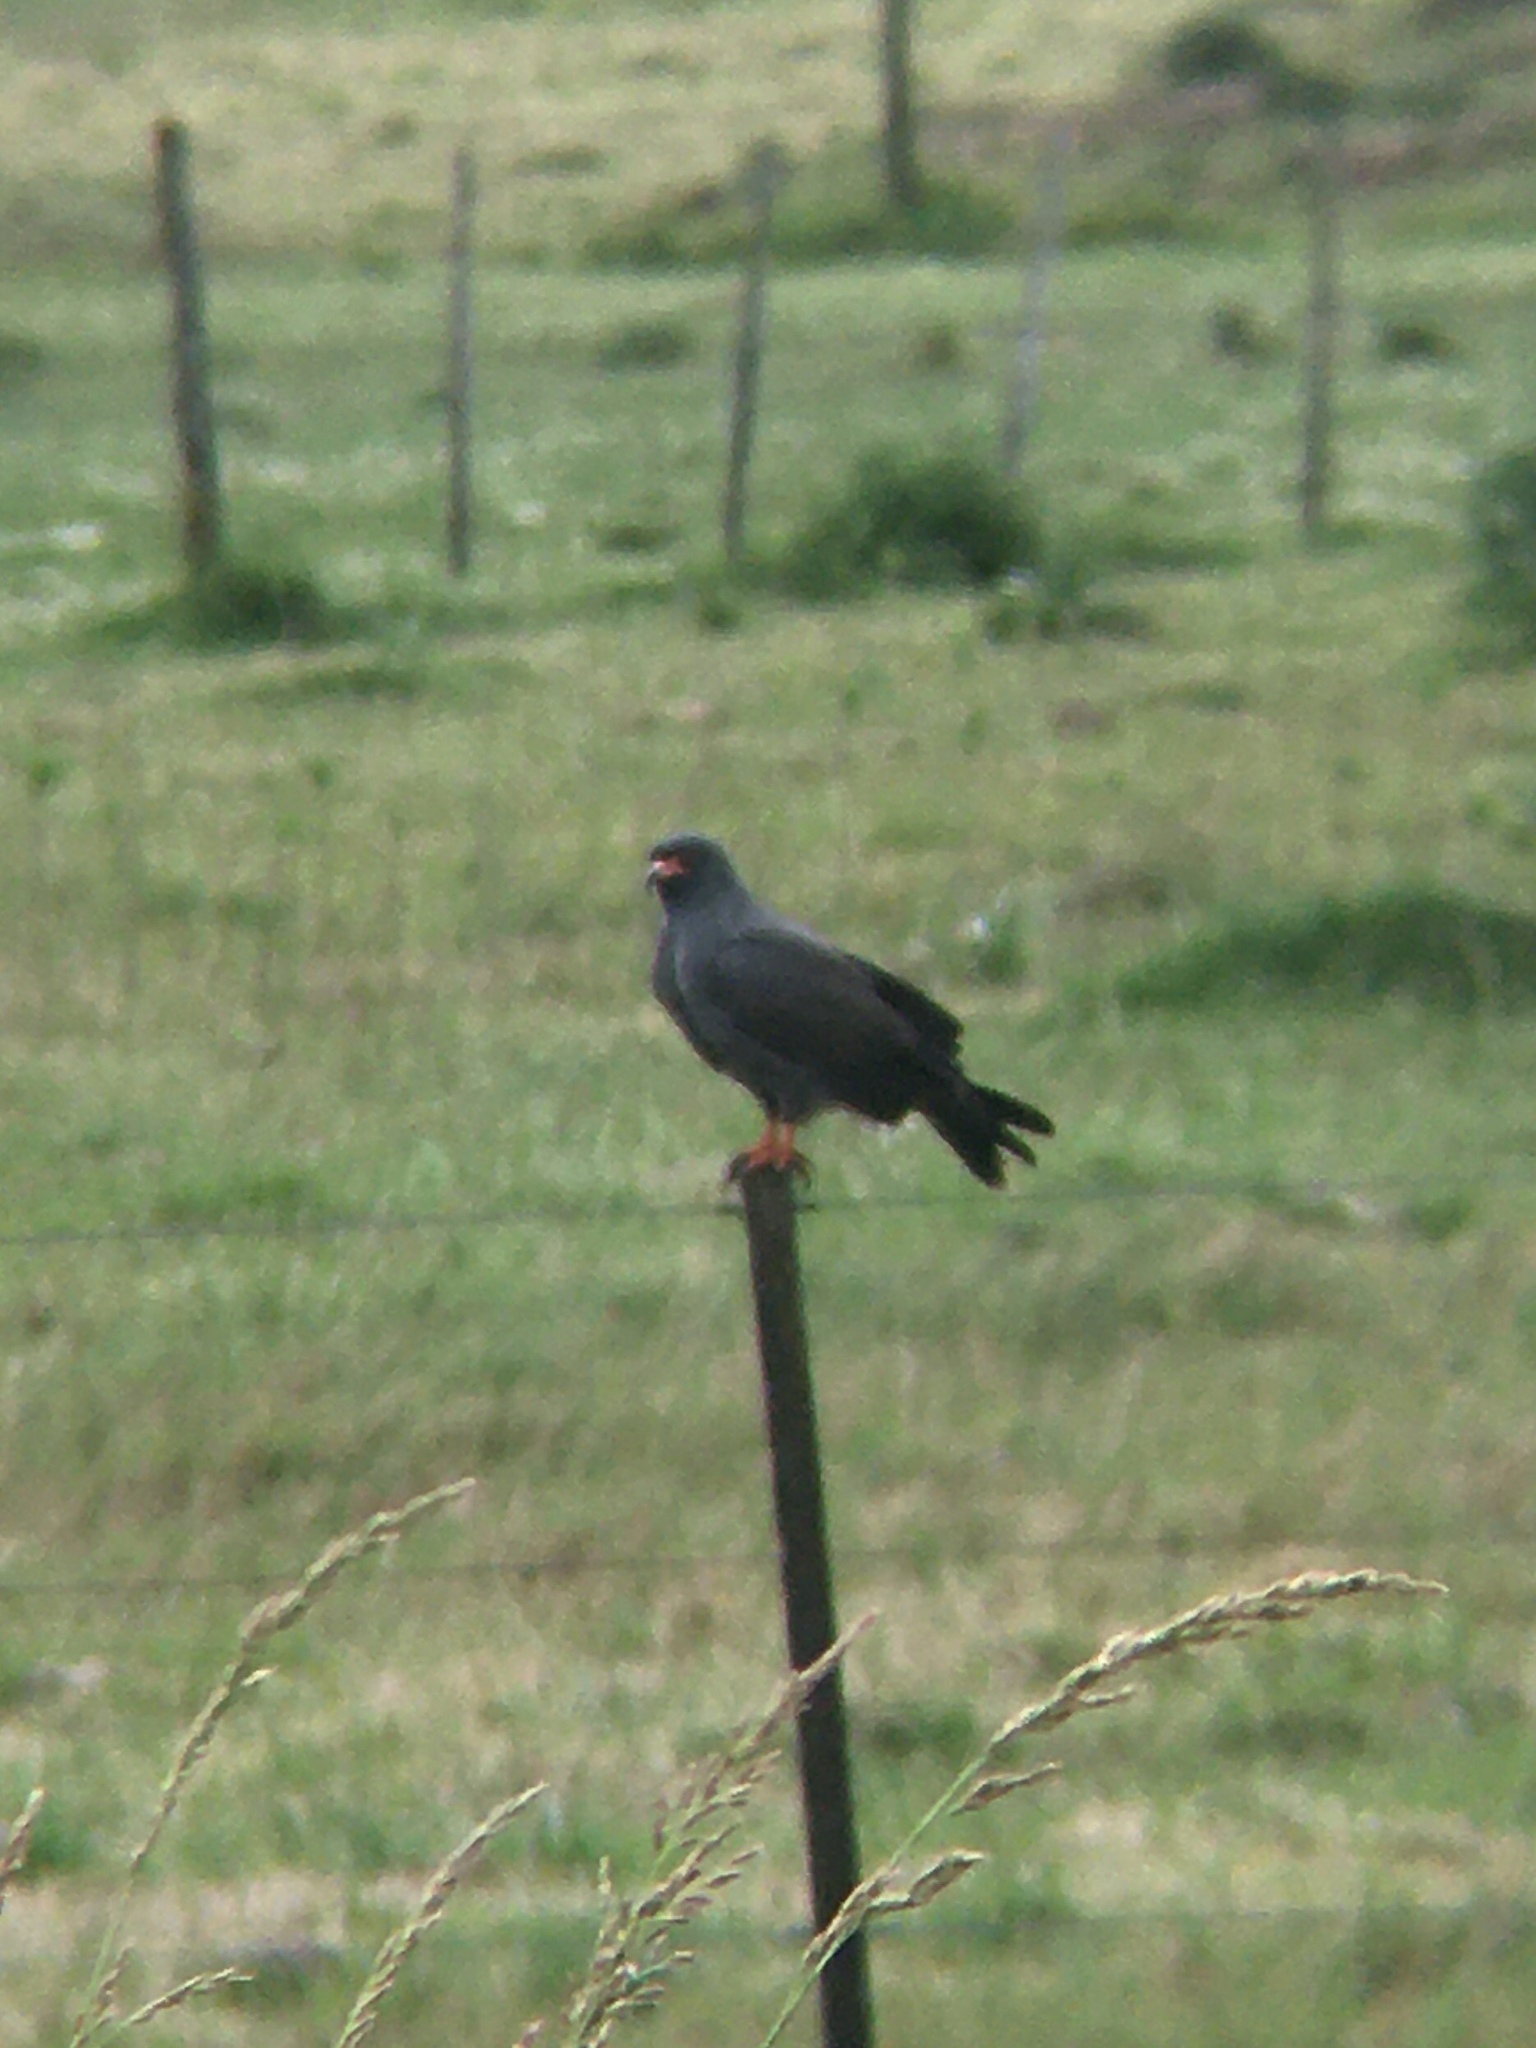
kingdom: Animalia
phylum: Chordata
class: Aves
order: Accipitriformes
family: Accipitridae
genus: Rostrhamus
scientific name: Rostrhamus sociabilis
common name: Snail kite
